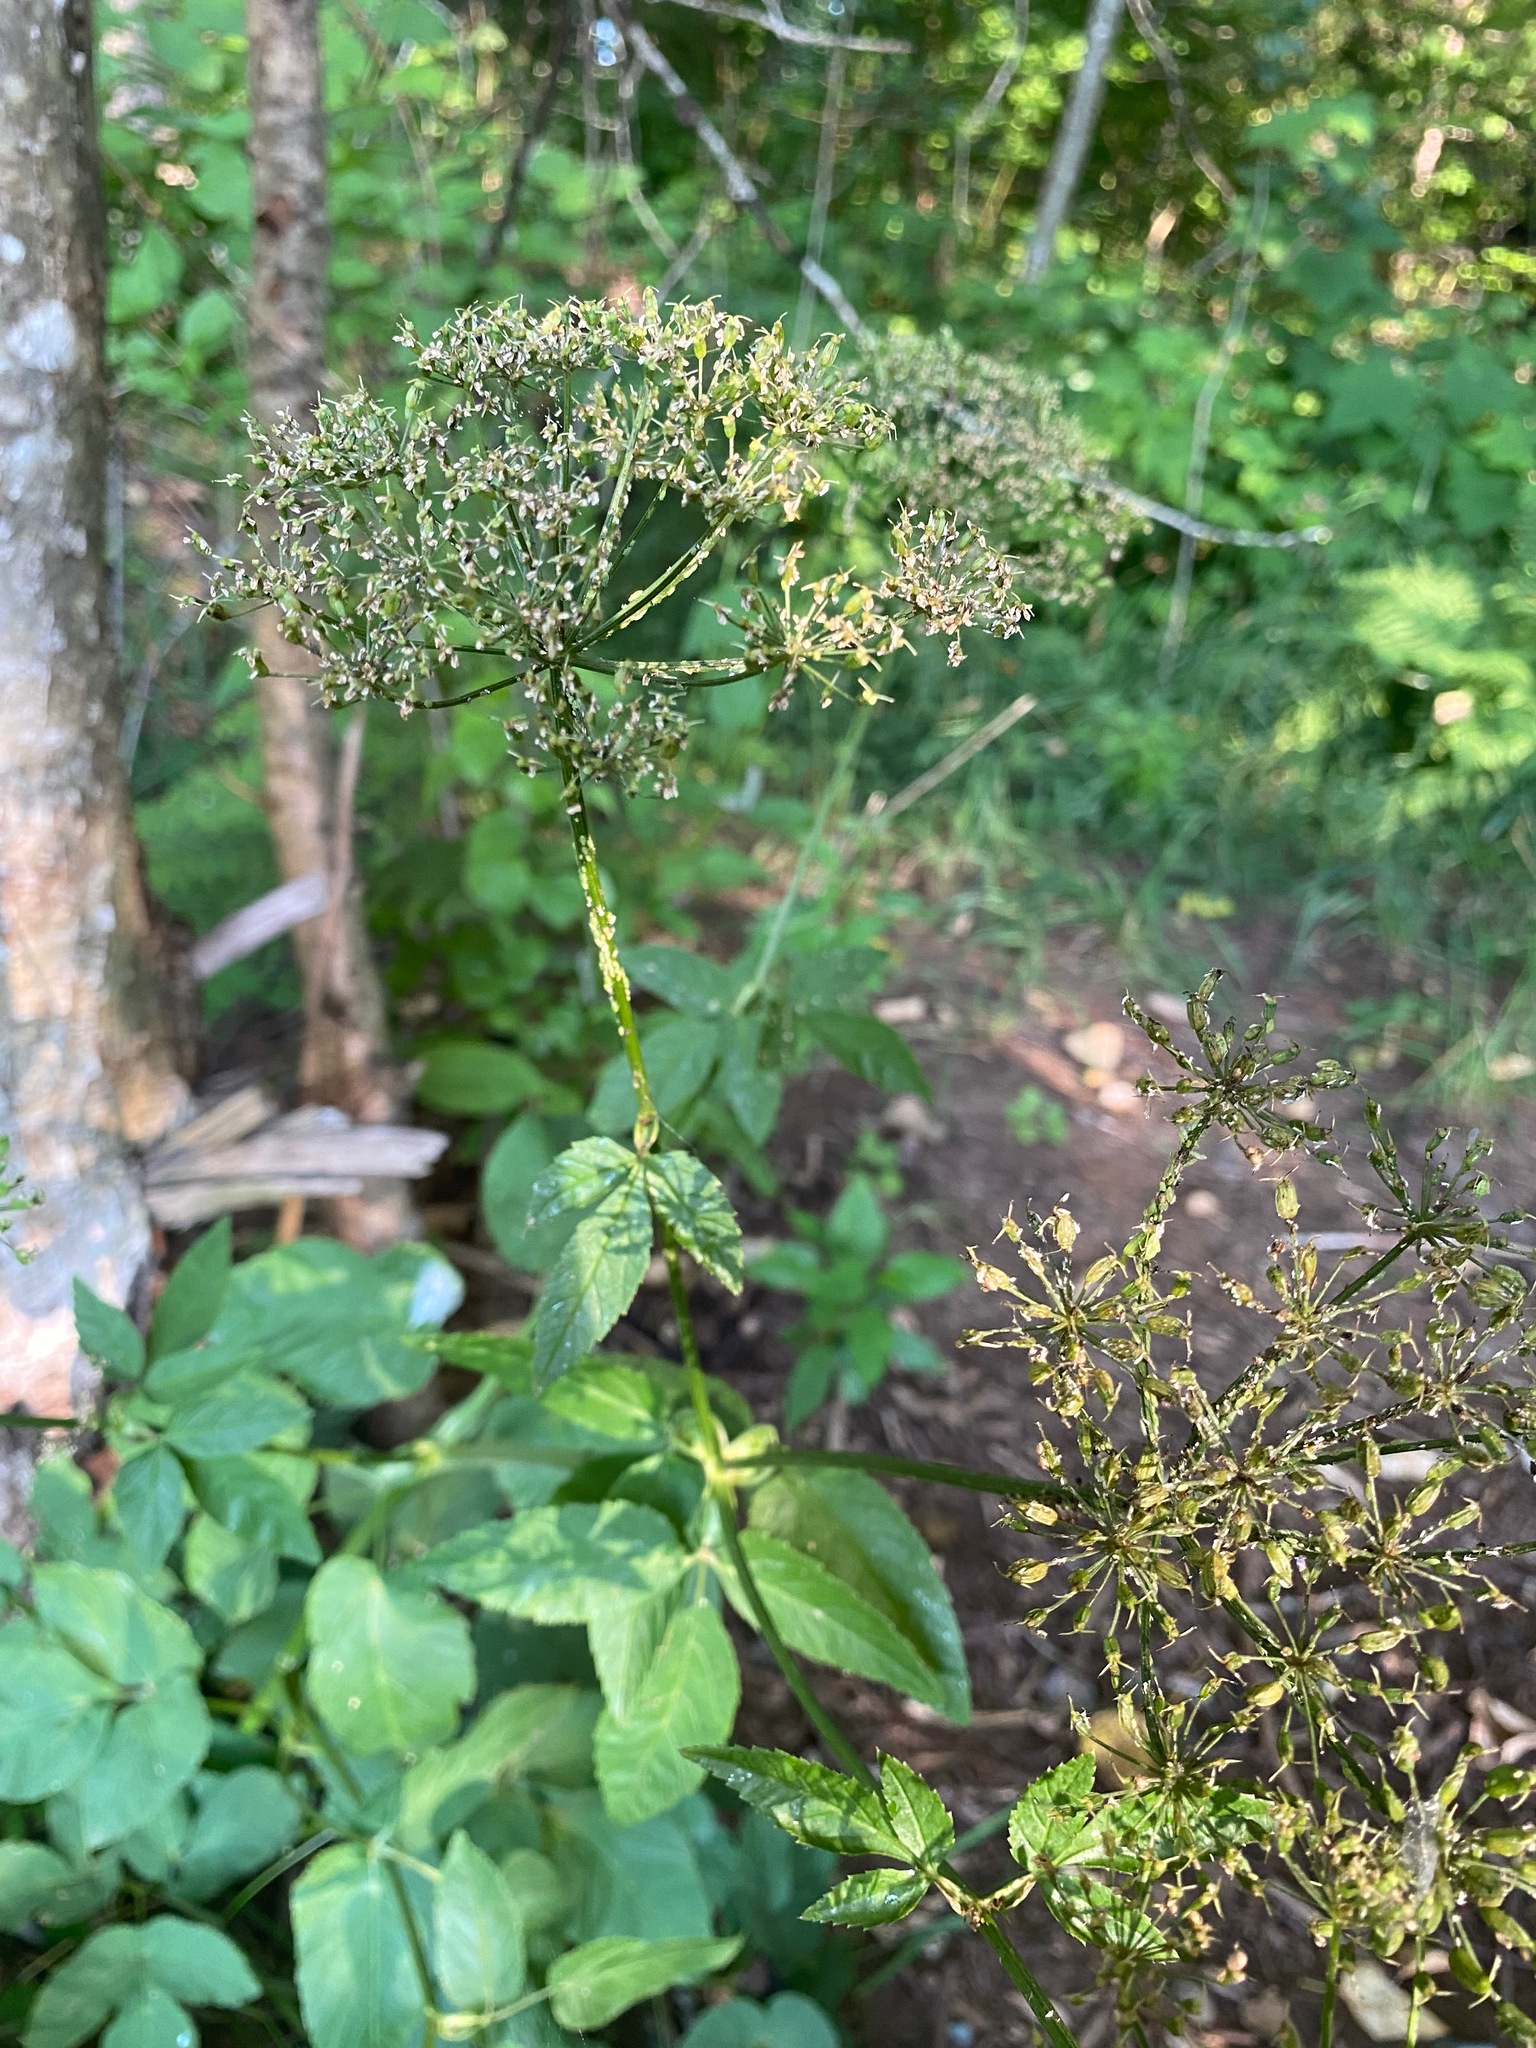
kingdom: Plantae
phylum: Tracheophyta
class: Magnoliopsida
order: Apiales
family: Apiaceae
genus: Aegopodium
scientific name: Aegopodium podagraria
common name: Ground-elder
